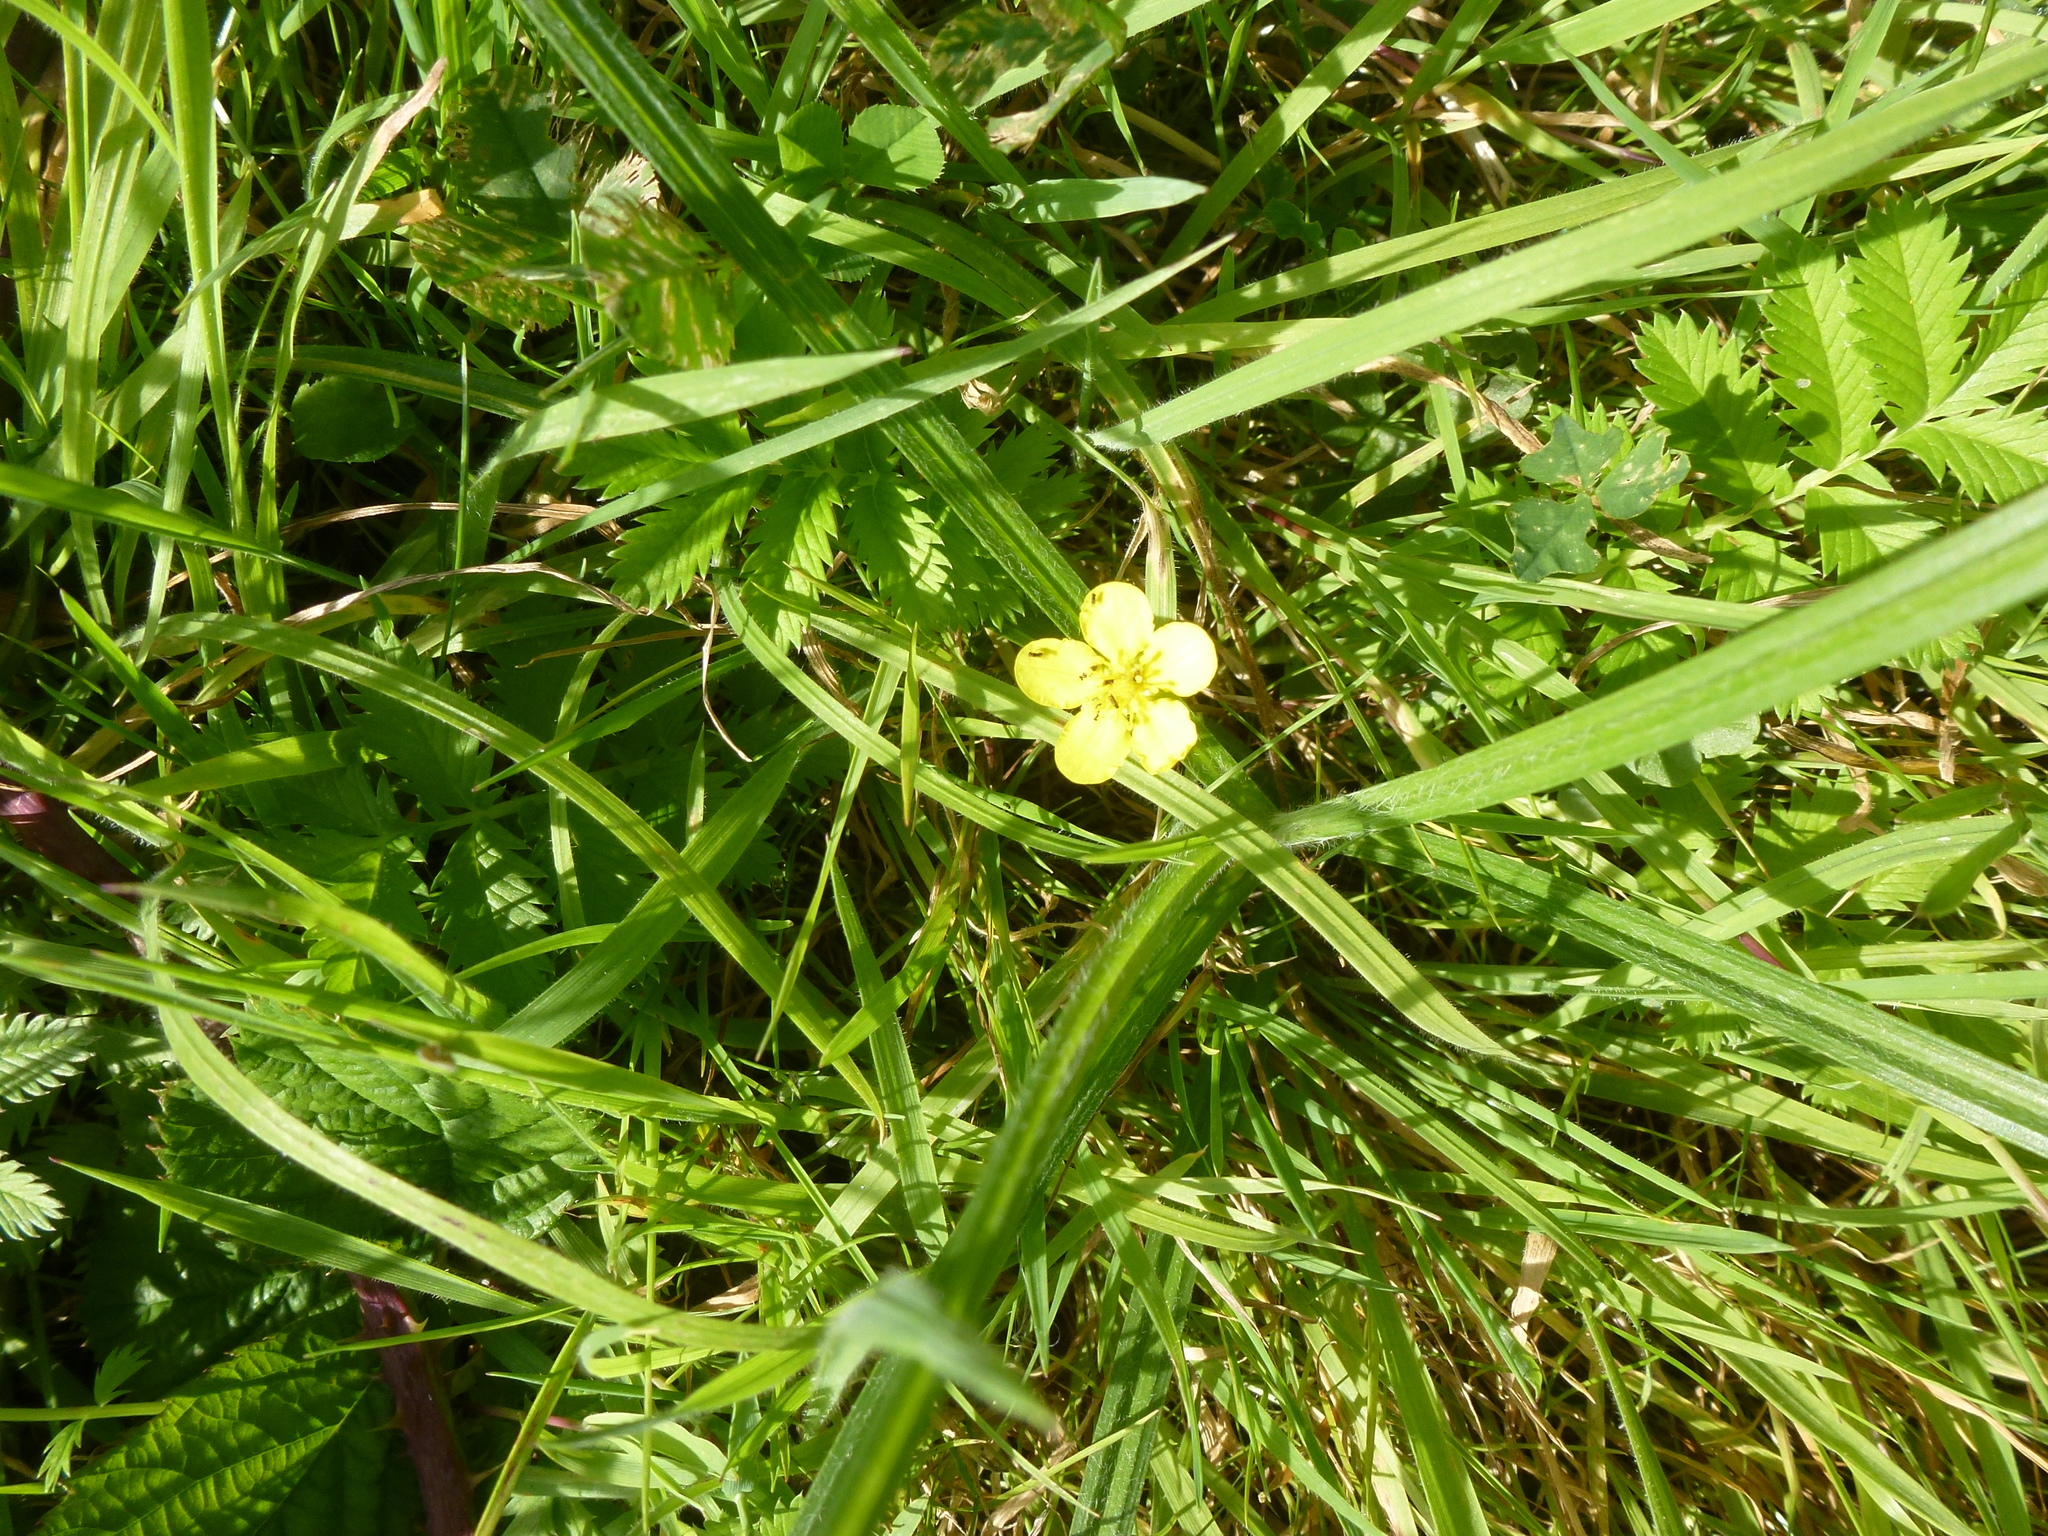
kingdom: Plantae
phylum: Tracheophyta
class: Magnoliopsida
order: Rosales
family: Rosaceae
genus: Argentina
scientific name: Argentina anserina
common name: Common silverweed
